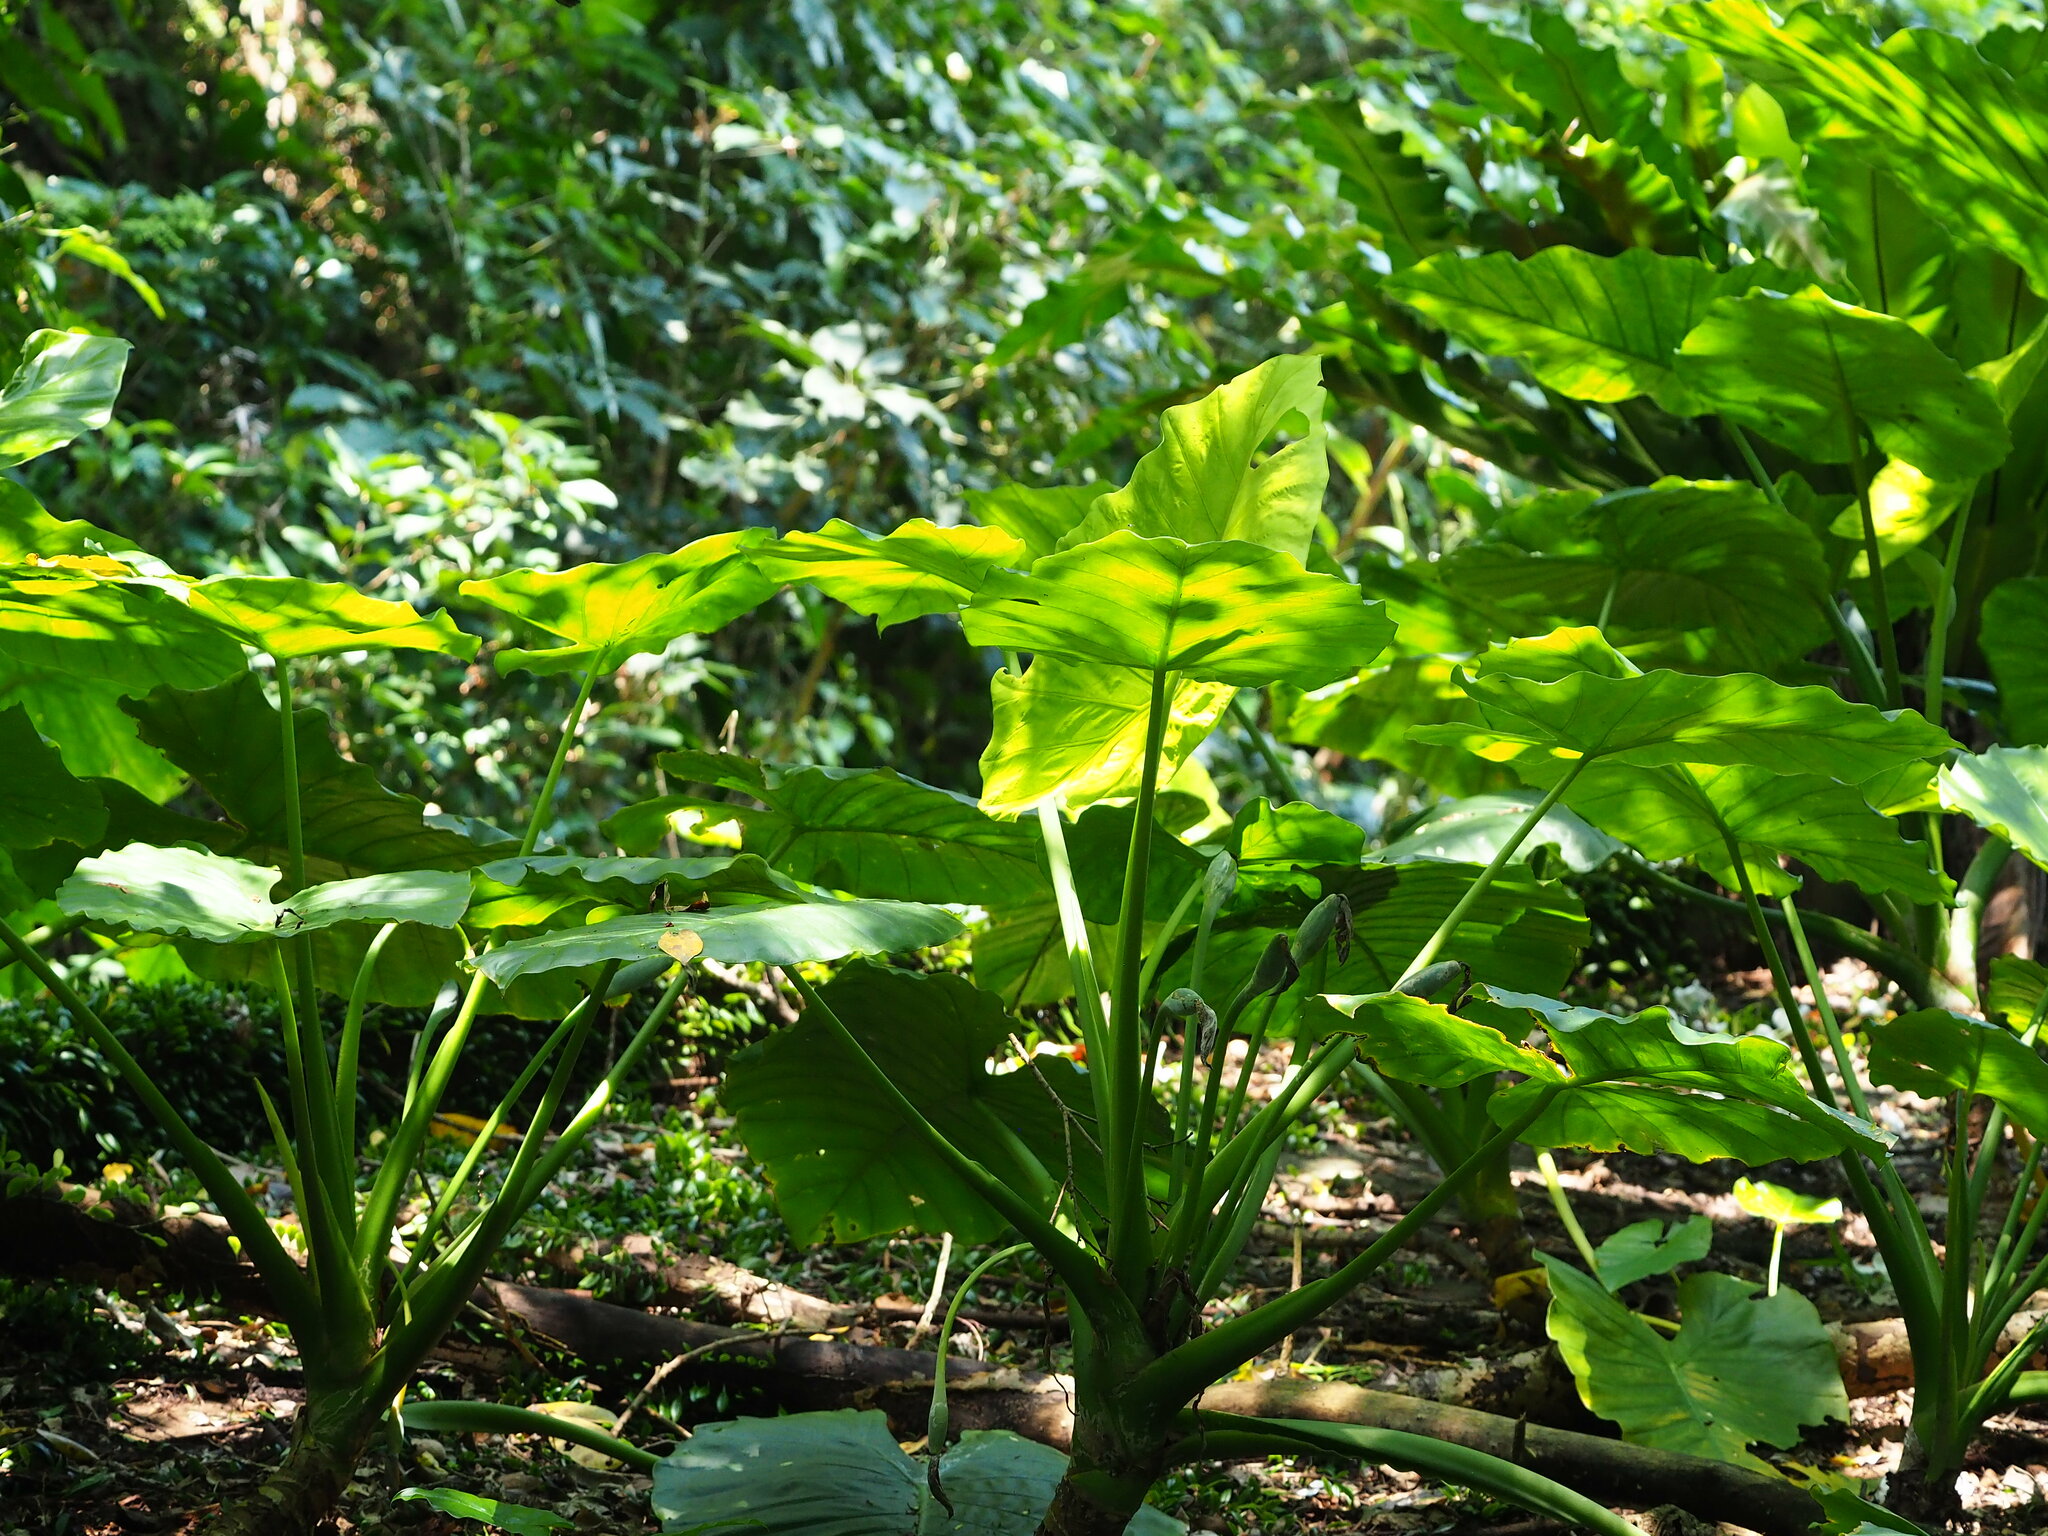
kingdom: Plantae
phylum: Tracheophyta
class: Liliopsida
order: Alismatales
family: Araceae
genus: Alocasia
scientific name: Alocasia odora
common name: Asian taro
